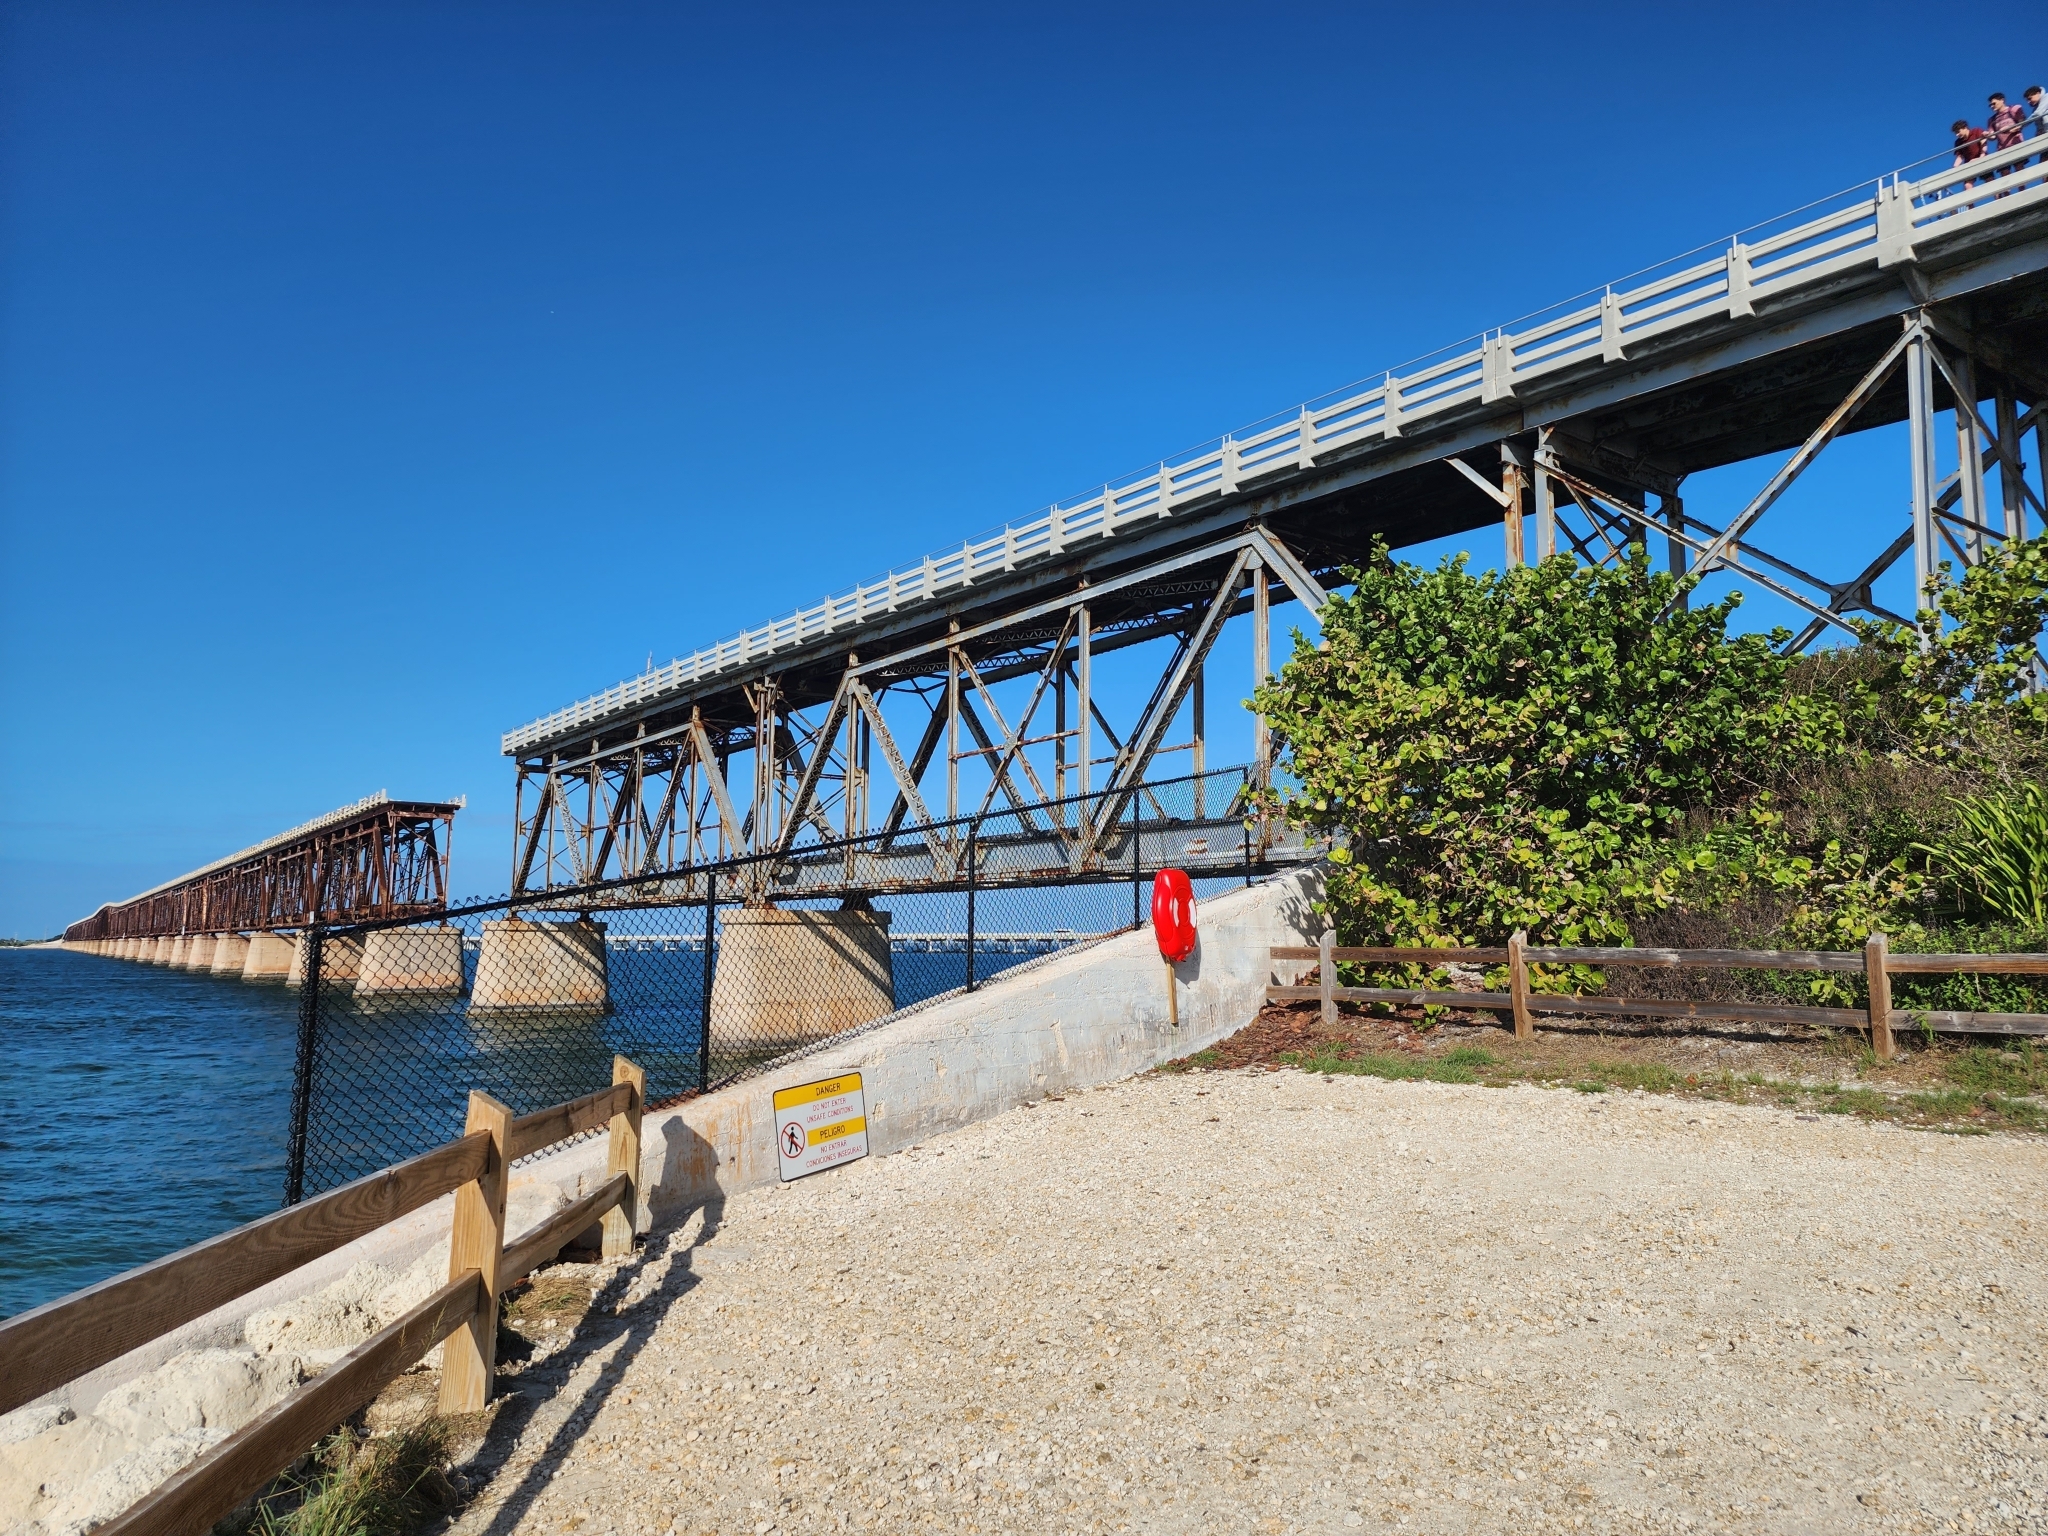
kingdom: Plantae
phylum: Tracheophyta
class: Magnoliopsida
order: Caryophyllales
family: Polygonaceae
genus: Coccoloba
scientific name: Coccoloba uvifera
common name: Seagrape
